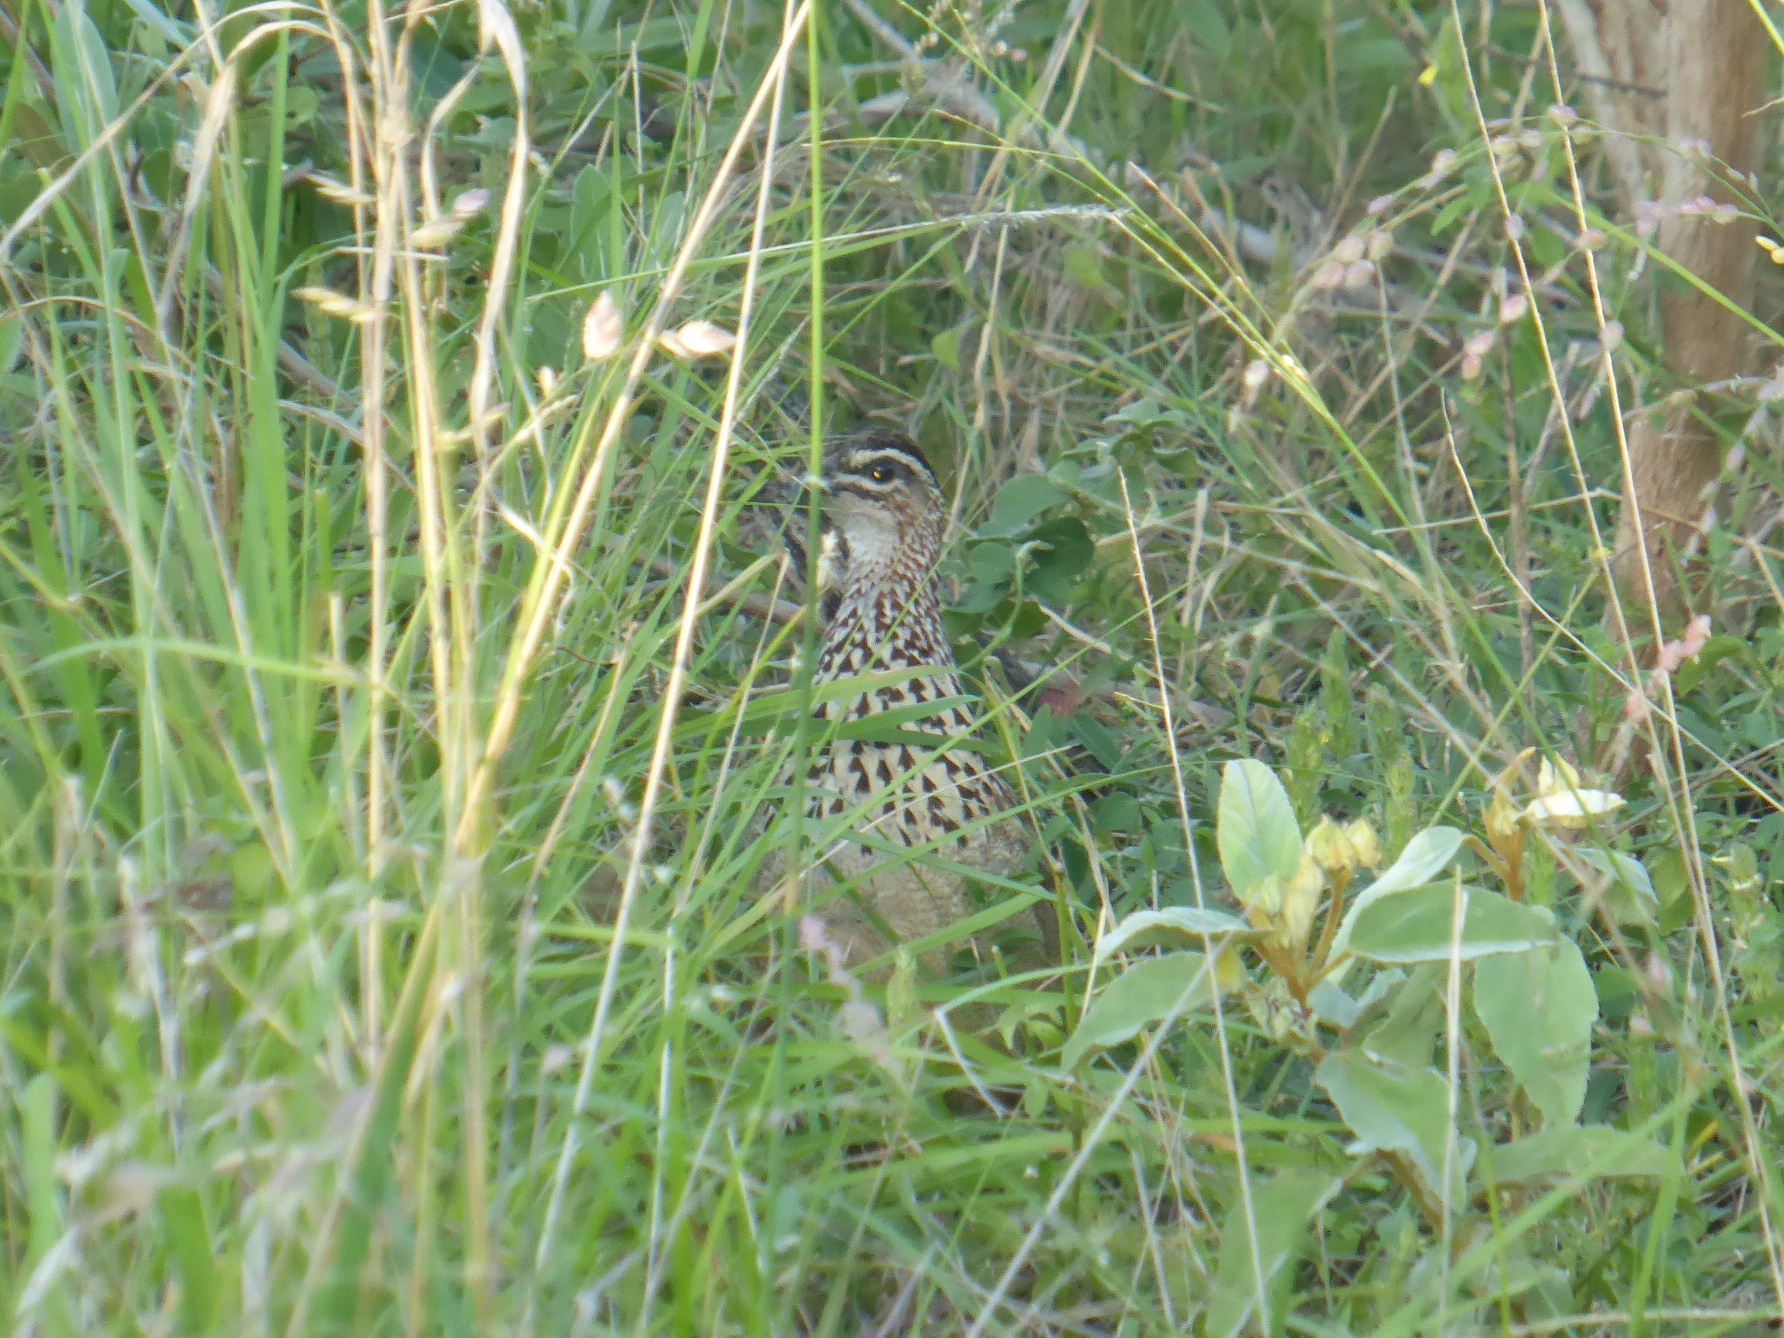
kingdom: Animalia
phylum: Chordata
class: Aves
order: Galliformes
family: Phasianidae
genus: Ortygornis
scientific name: Ortygornis sephaena
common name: Crested francolin
